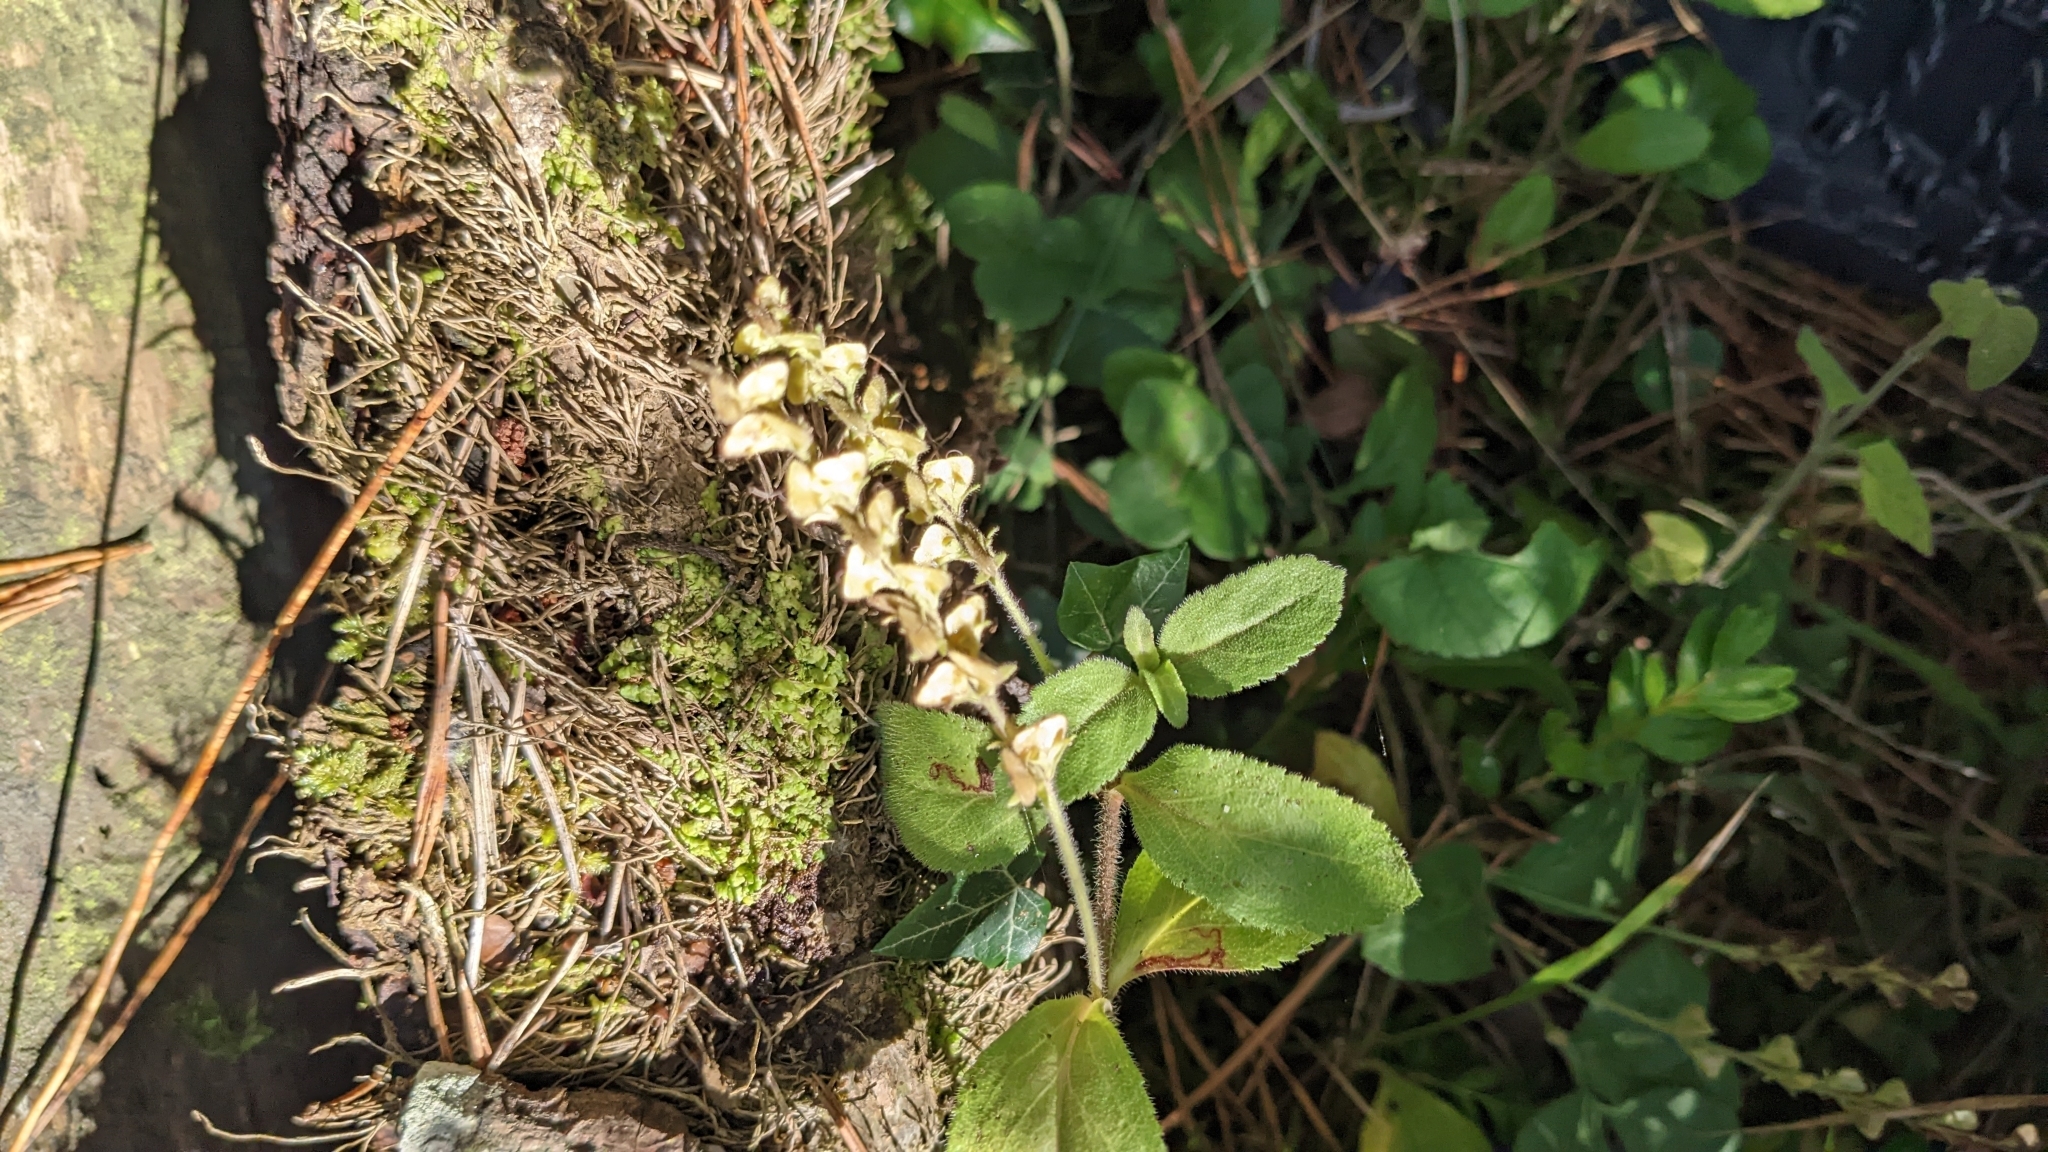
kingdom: Plantae
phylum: Tracheophyta
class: Magnoliopsida
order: Lamiales
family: Lamiaceae
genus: Teucrium
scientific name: Teucrium scorodonia
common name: Woodland germander
